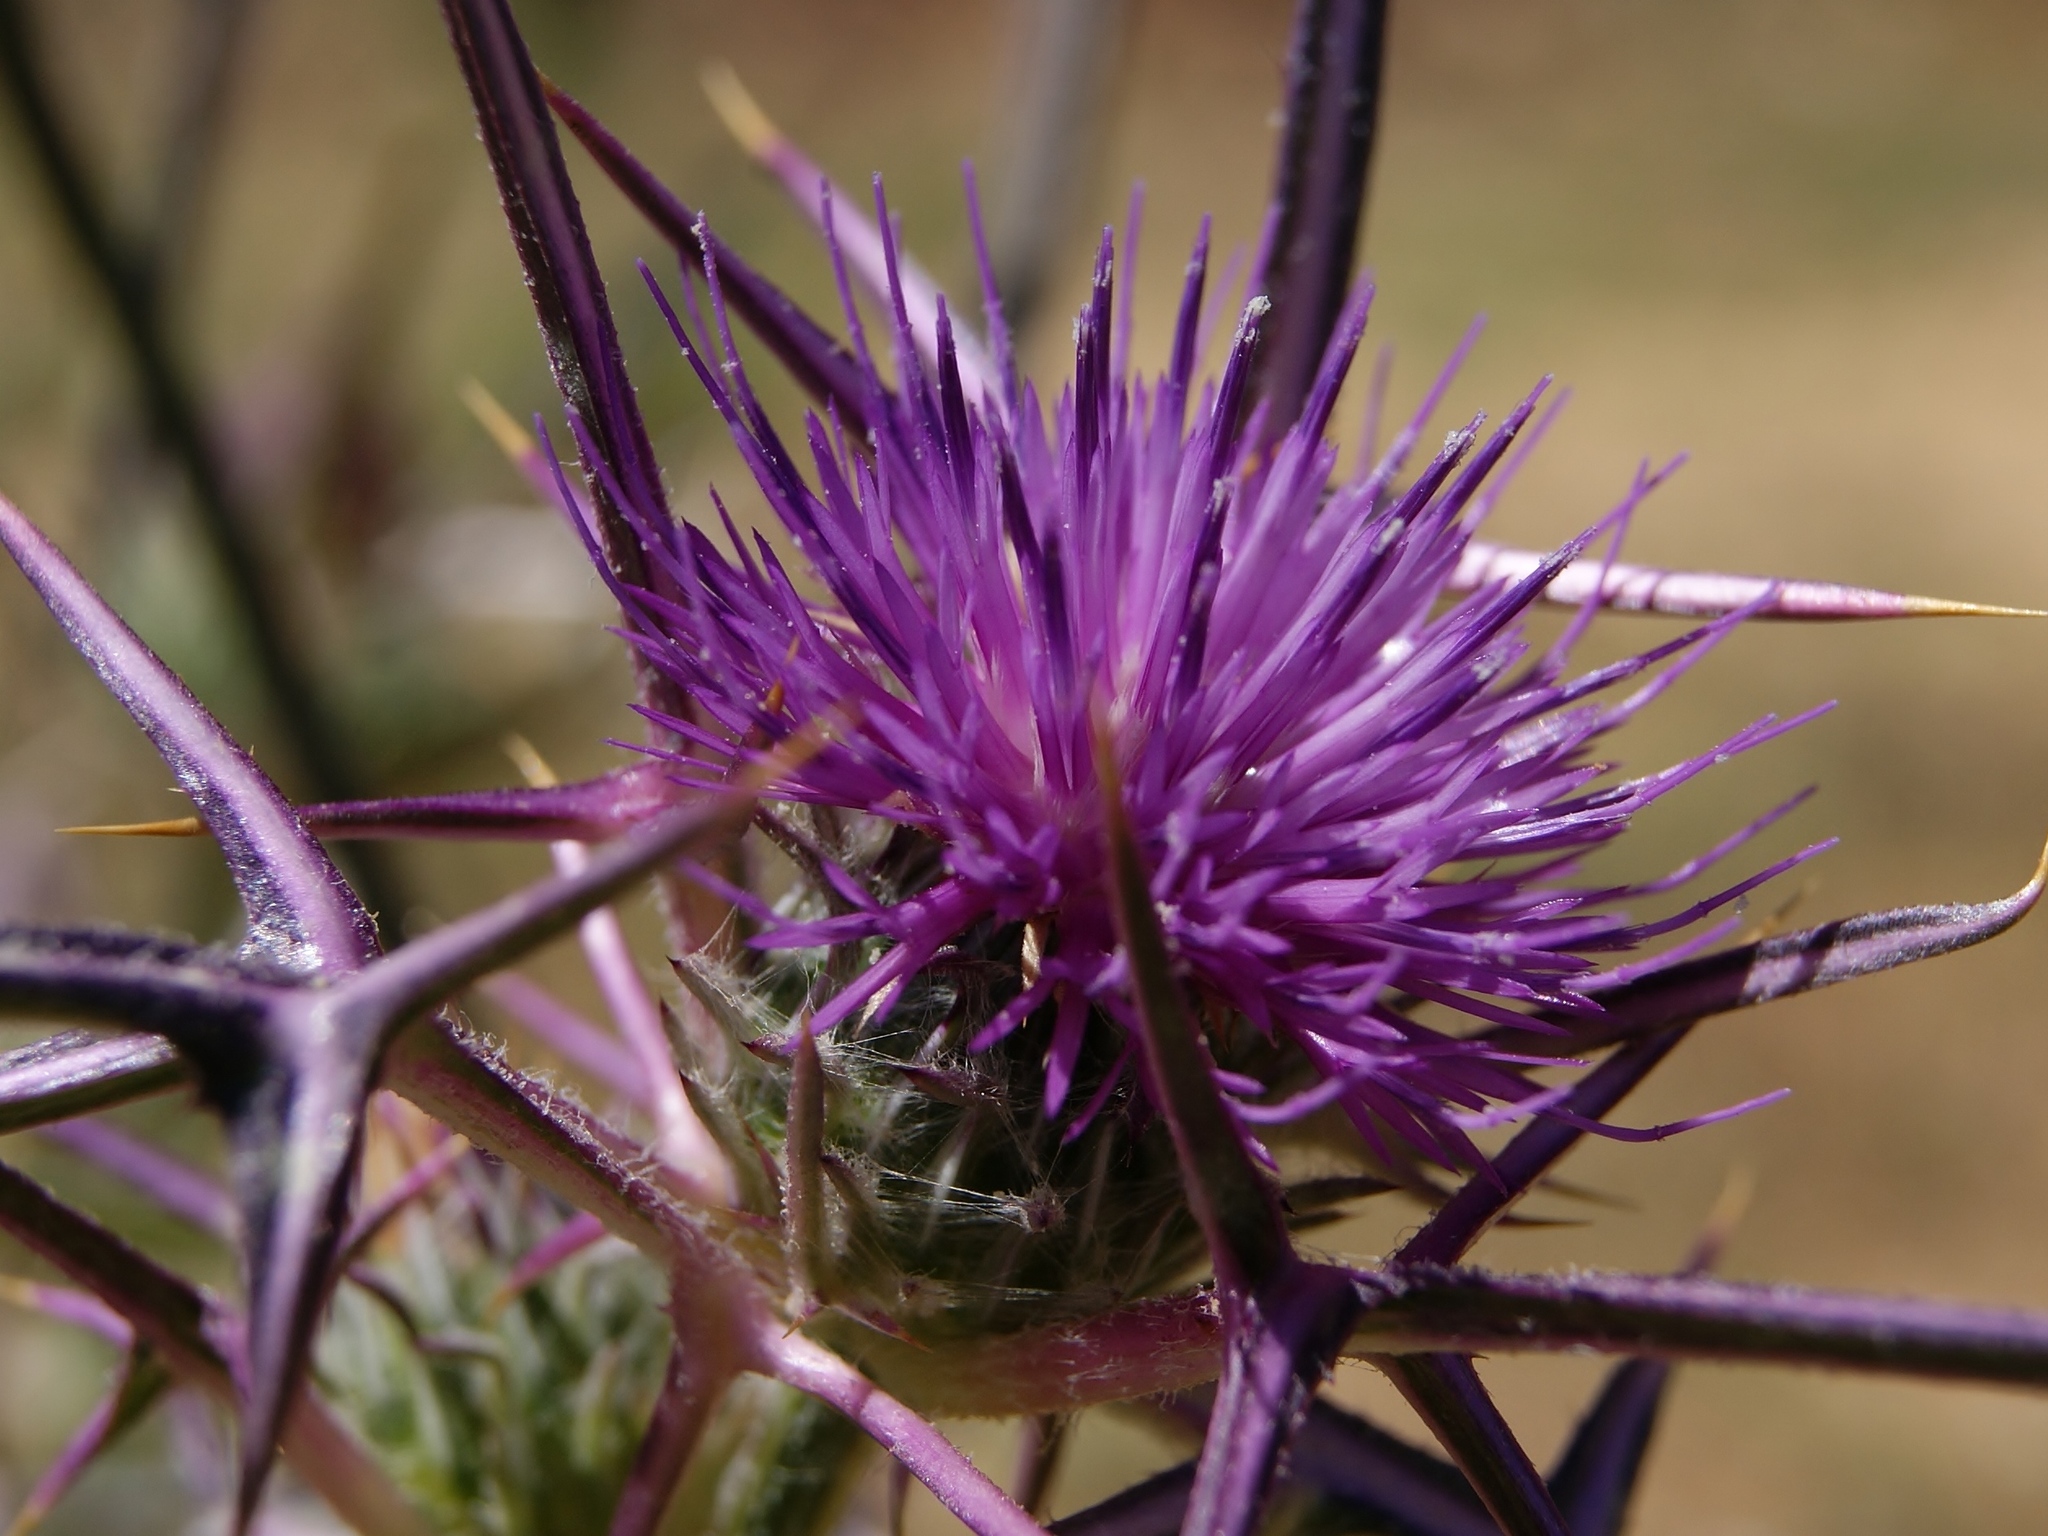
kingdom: Plantae
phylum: Tracheophyta
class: Magnoliopsida
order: Asterales
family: Asteraceae
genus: Notobasis
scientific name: Notobasis syriaca
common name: Syrian thistle
